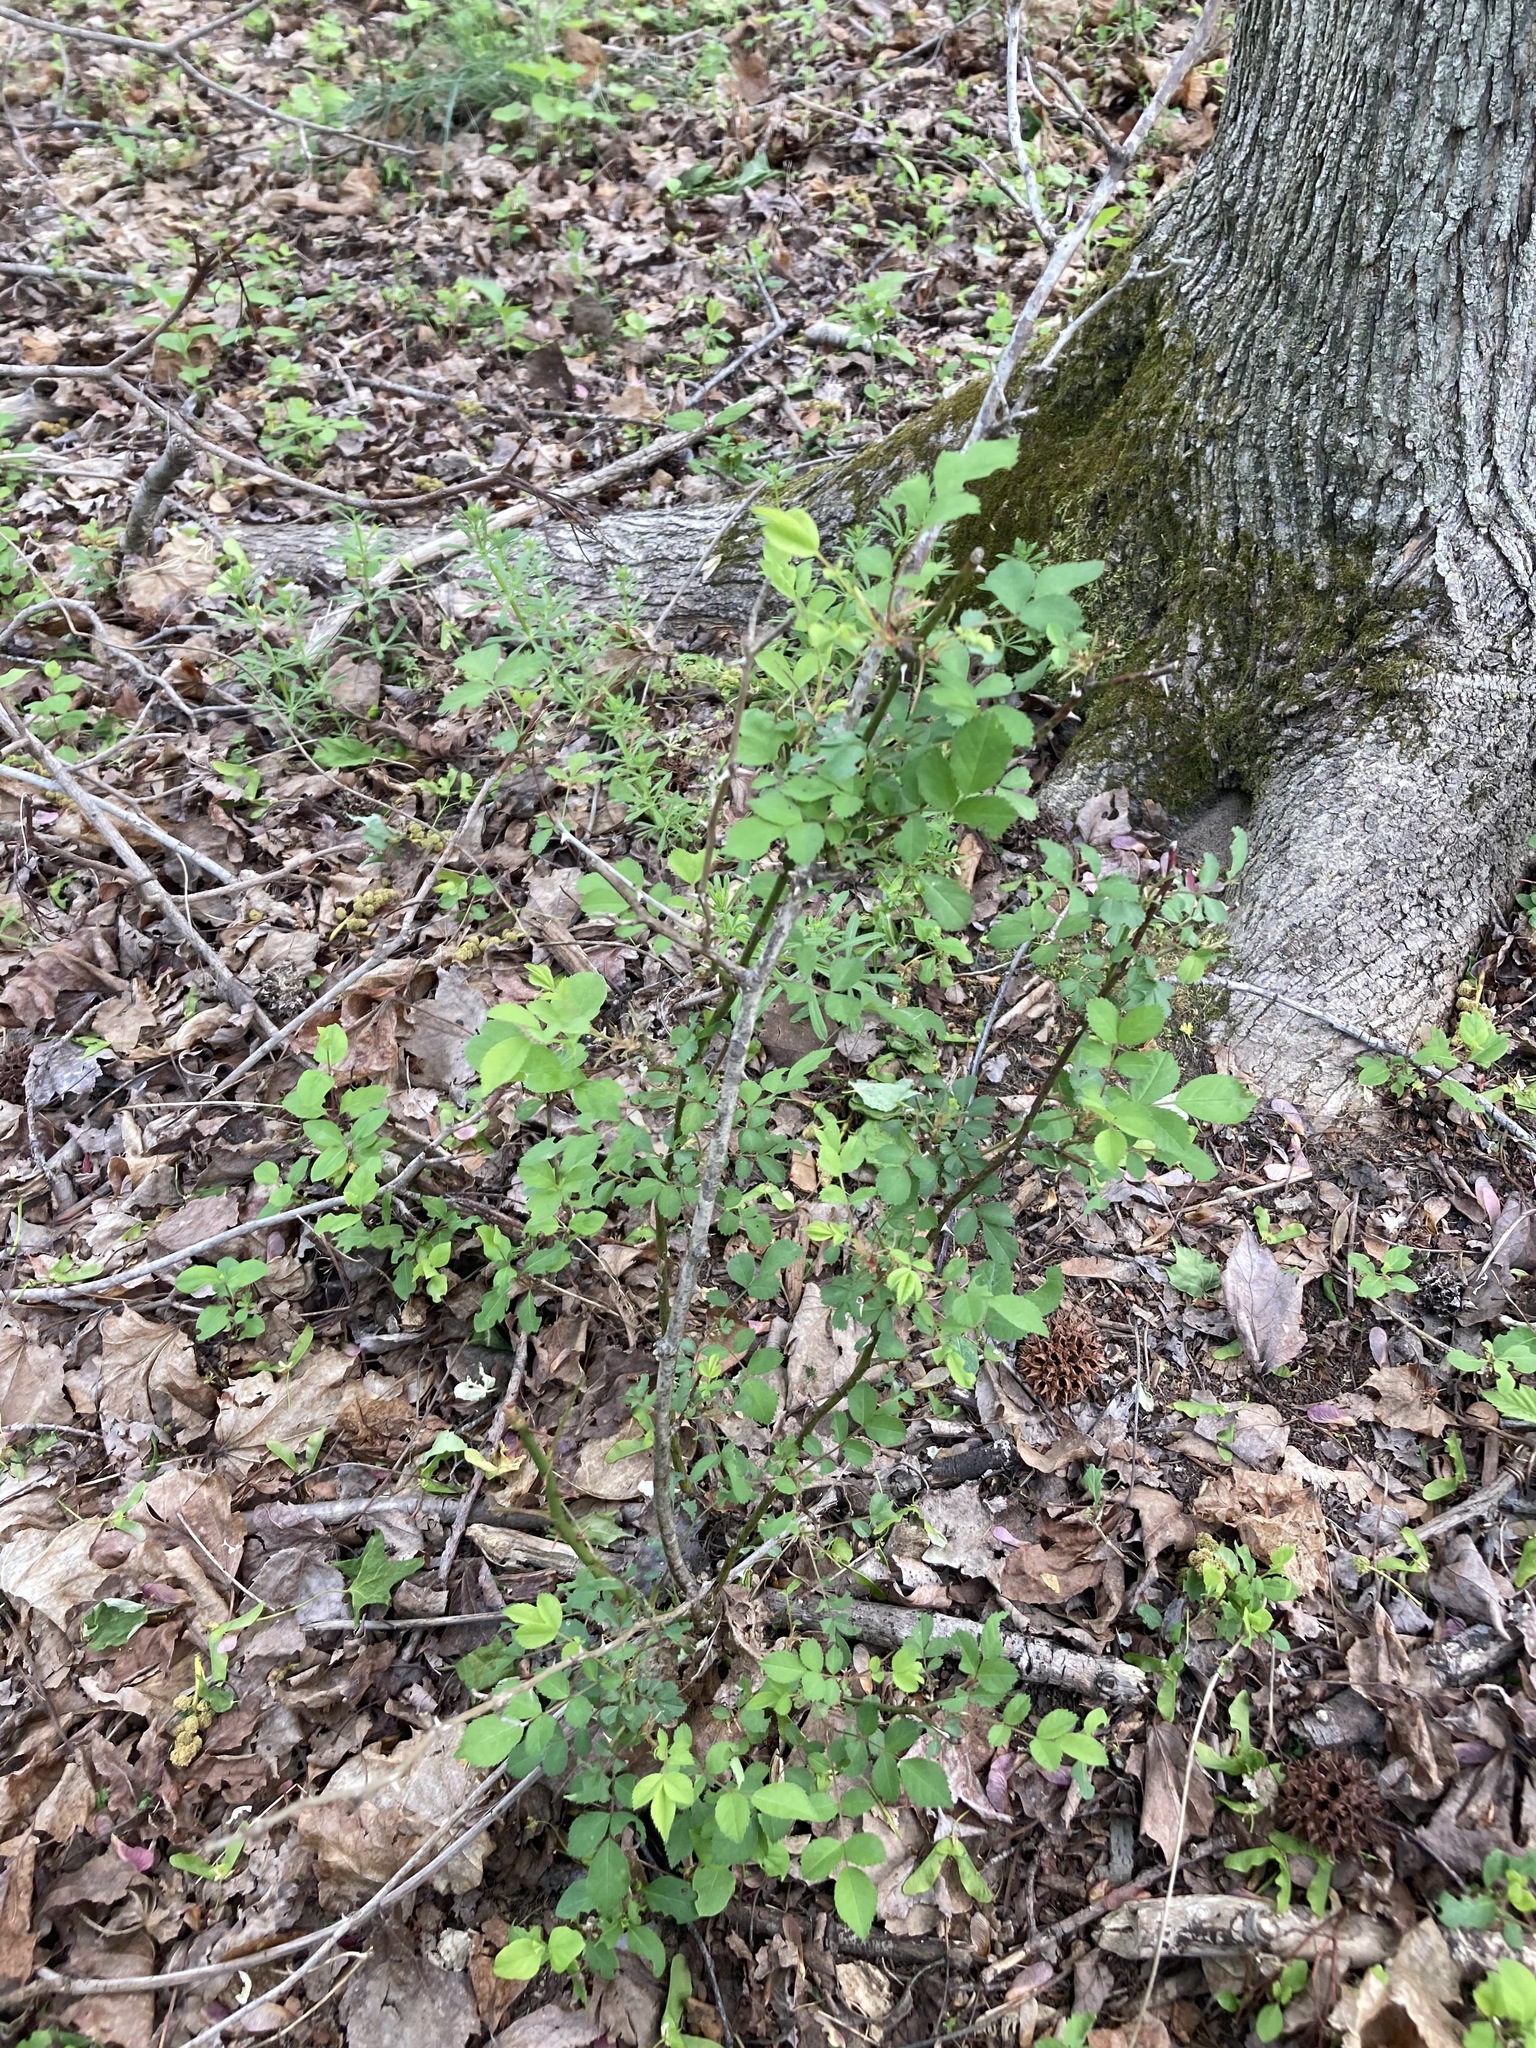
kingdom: Plantae
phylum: Tracheophyta
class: Magnoliopsida
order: Rosales
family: Rosaceae
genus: Rosa
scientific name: Rosa multiflora
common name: Multiflora rose
